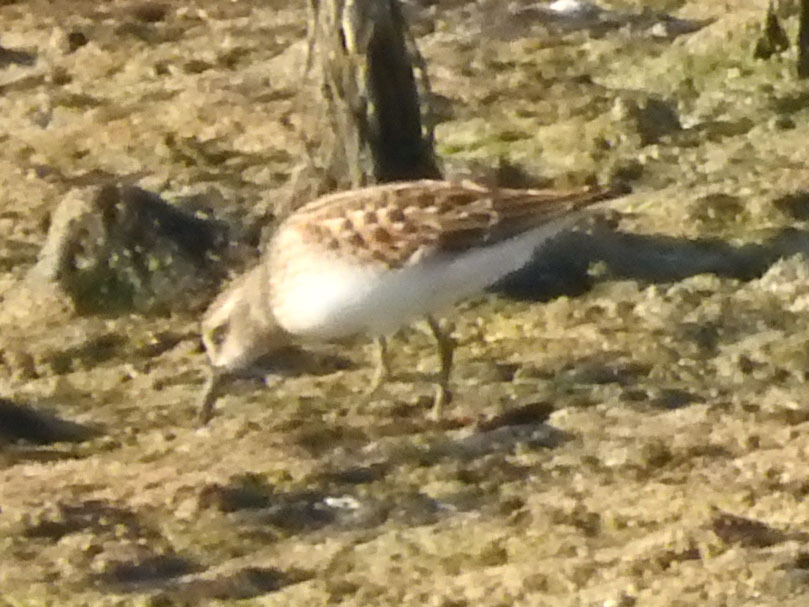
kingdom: Animalia
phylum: Chordata
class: Aves
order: Charadriiformes
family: Scolopacidae
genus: Calidris
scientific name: Calidris minutilla
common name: Least sandpiper
